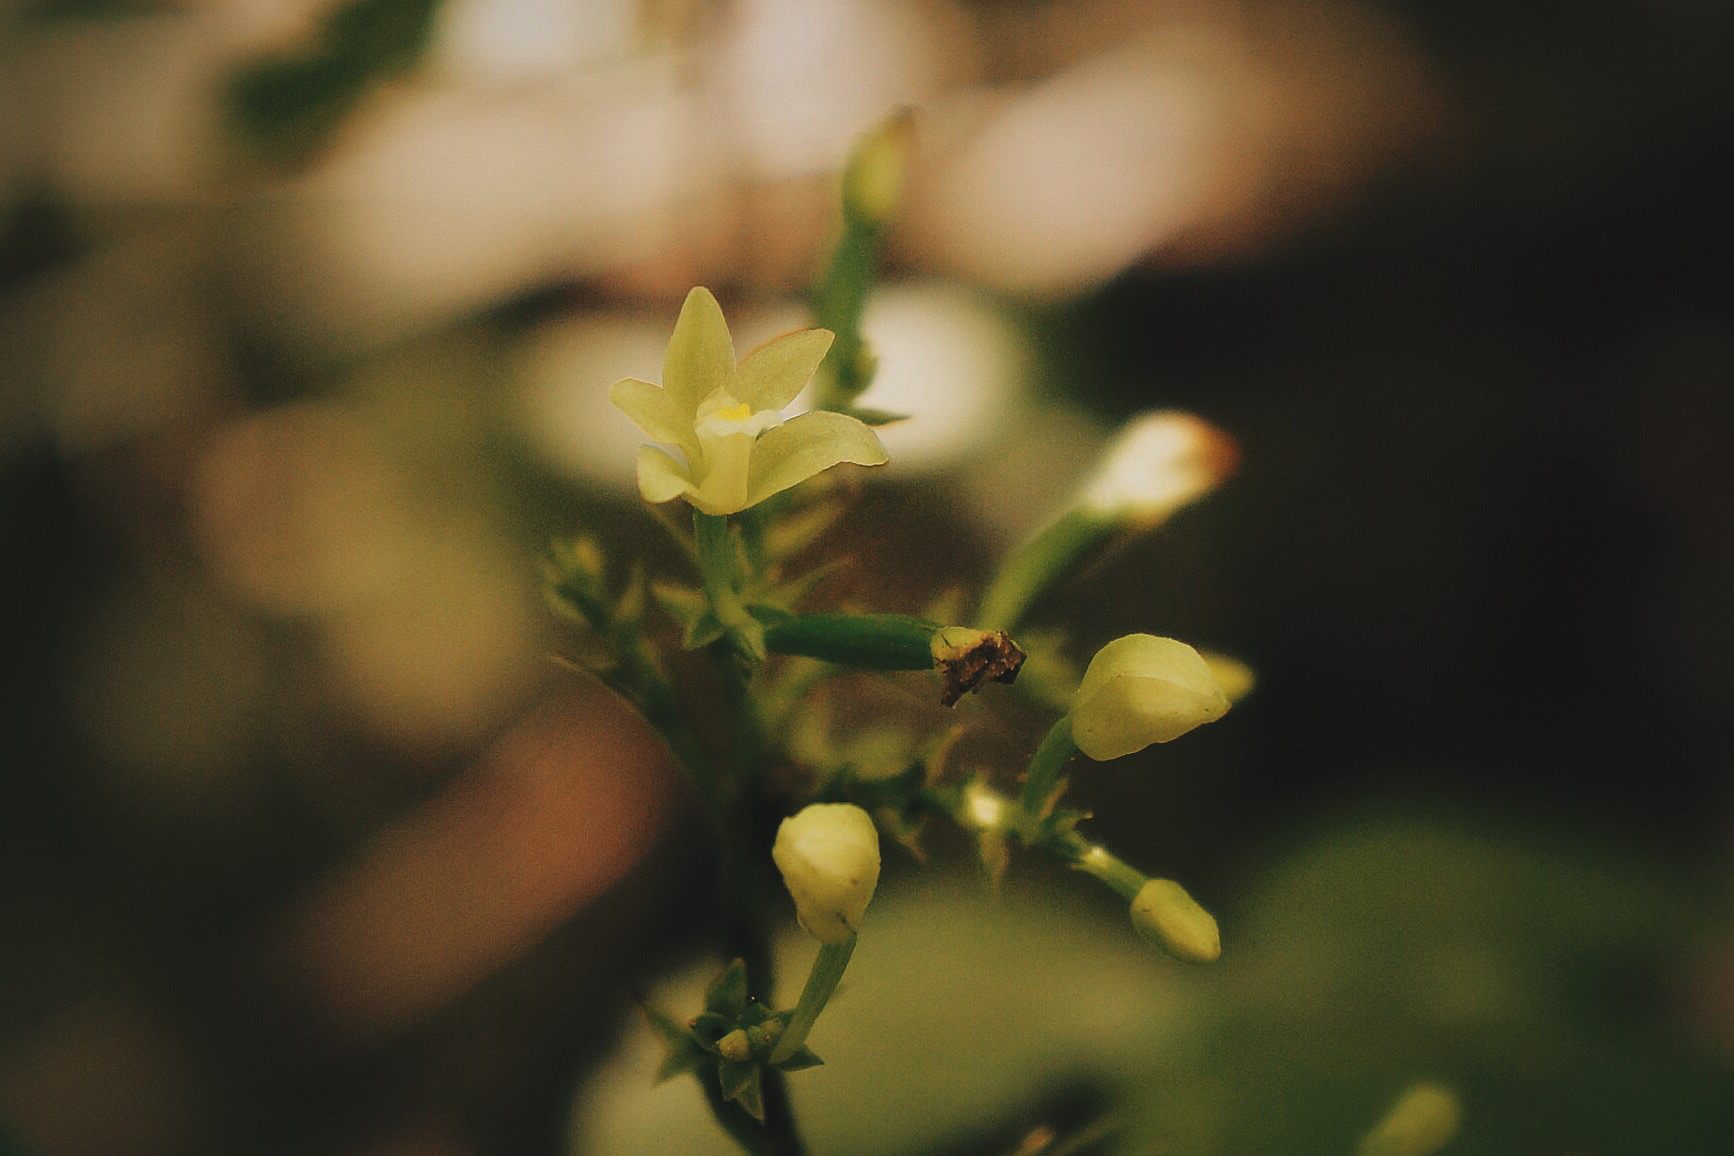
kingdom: Plantae
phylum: Tracheophyta
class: Liliopsida
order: Asparagales
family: Orchidaceae
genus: Tropidia
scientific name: Tropidia polystachya
